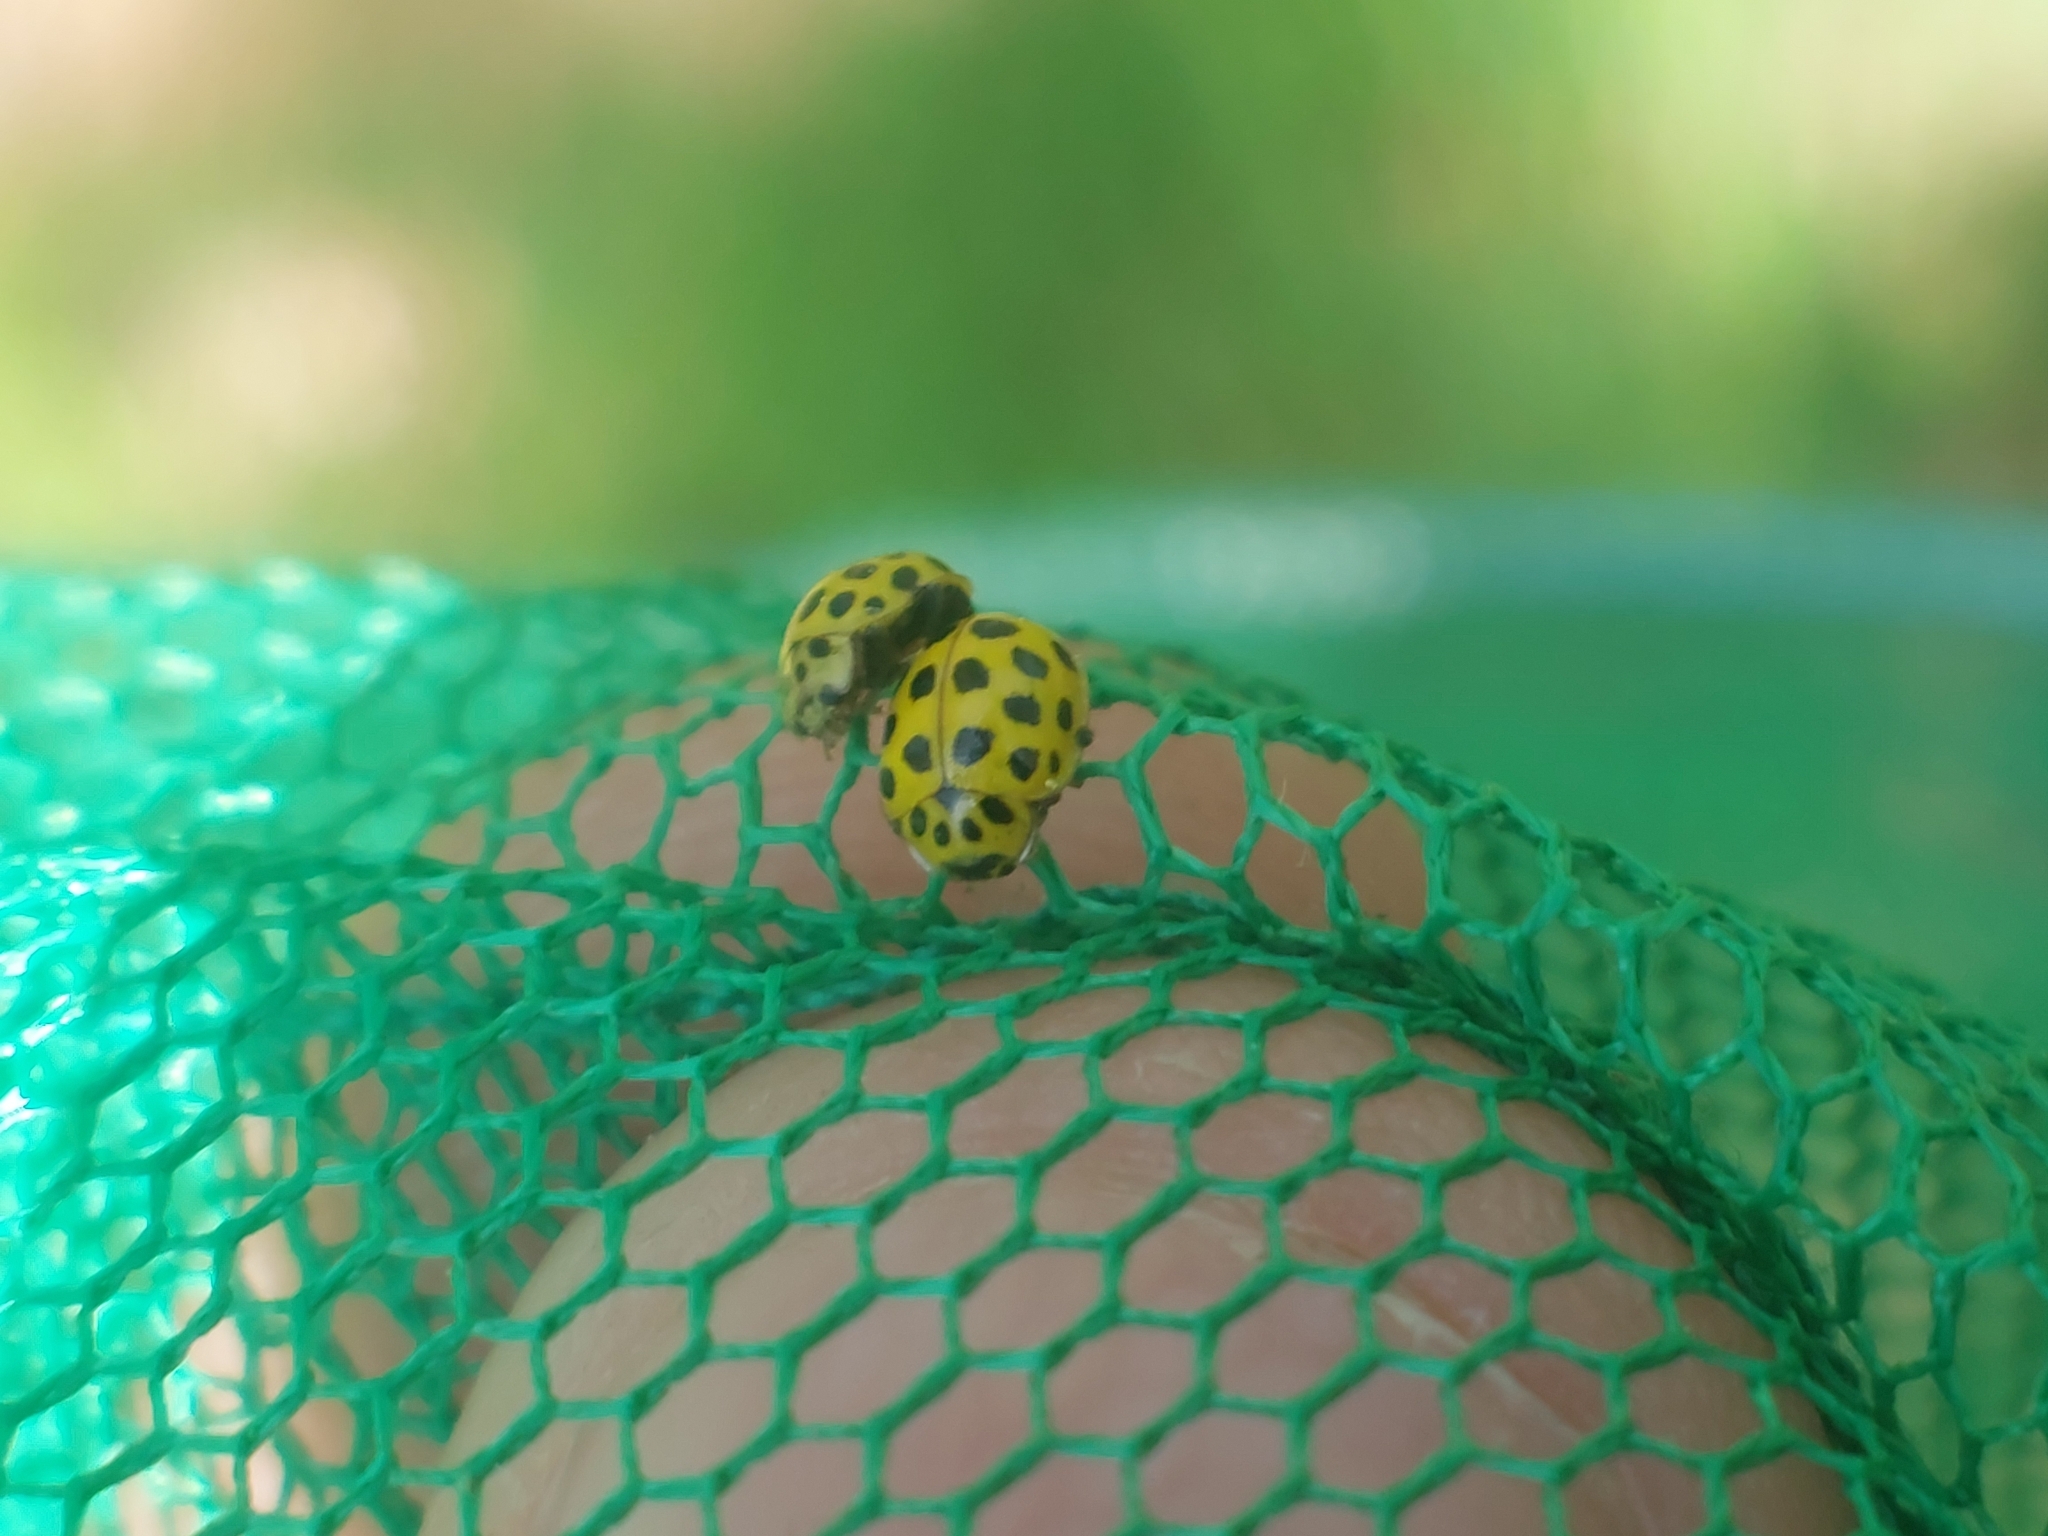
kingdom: Animalia
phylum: Arthropoda
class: Insecta
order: Coleoptera
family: Coccinellidae
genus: Psyllobora
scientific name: Psyllobora vigintiduopunctata
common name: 22-spot ladybird
